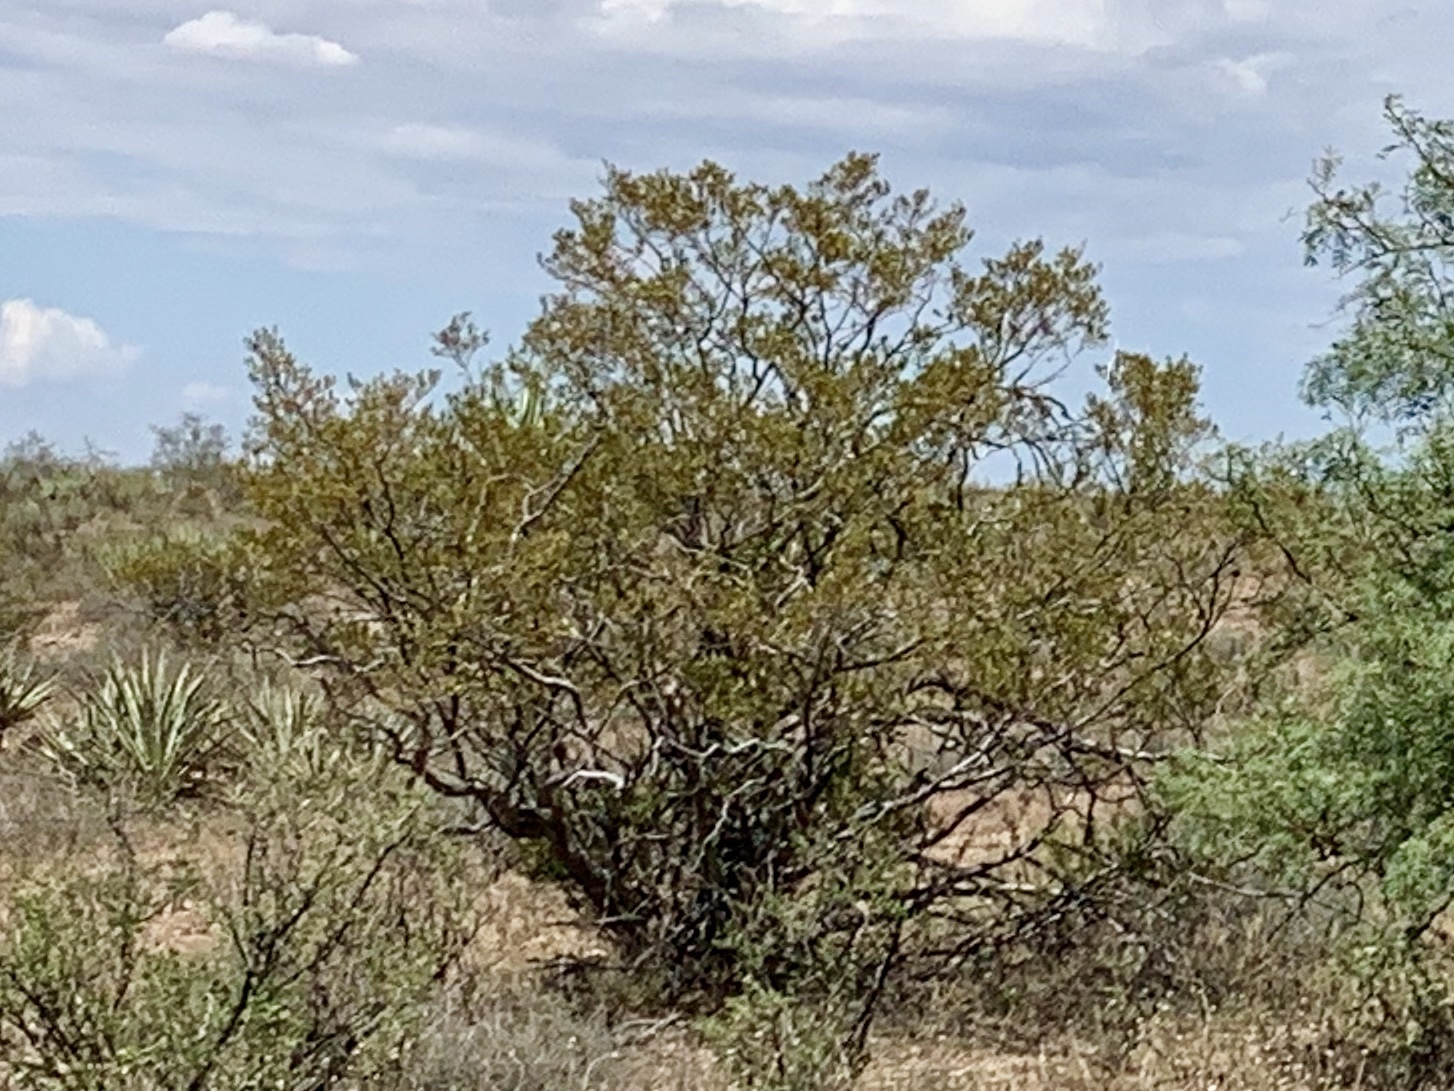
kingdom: Plantae
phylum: Tracheophyta
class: Magnoliopsida
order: Zygophyllales
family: Zygophyllaceae
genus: Larrea
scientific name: Larrea tridentata
